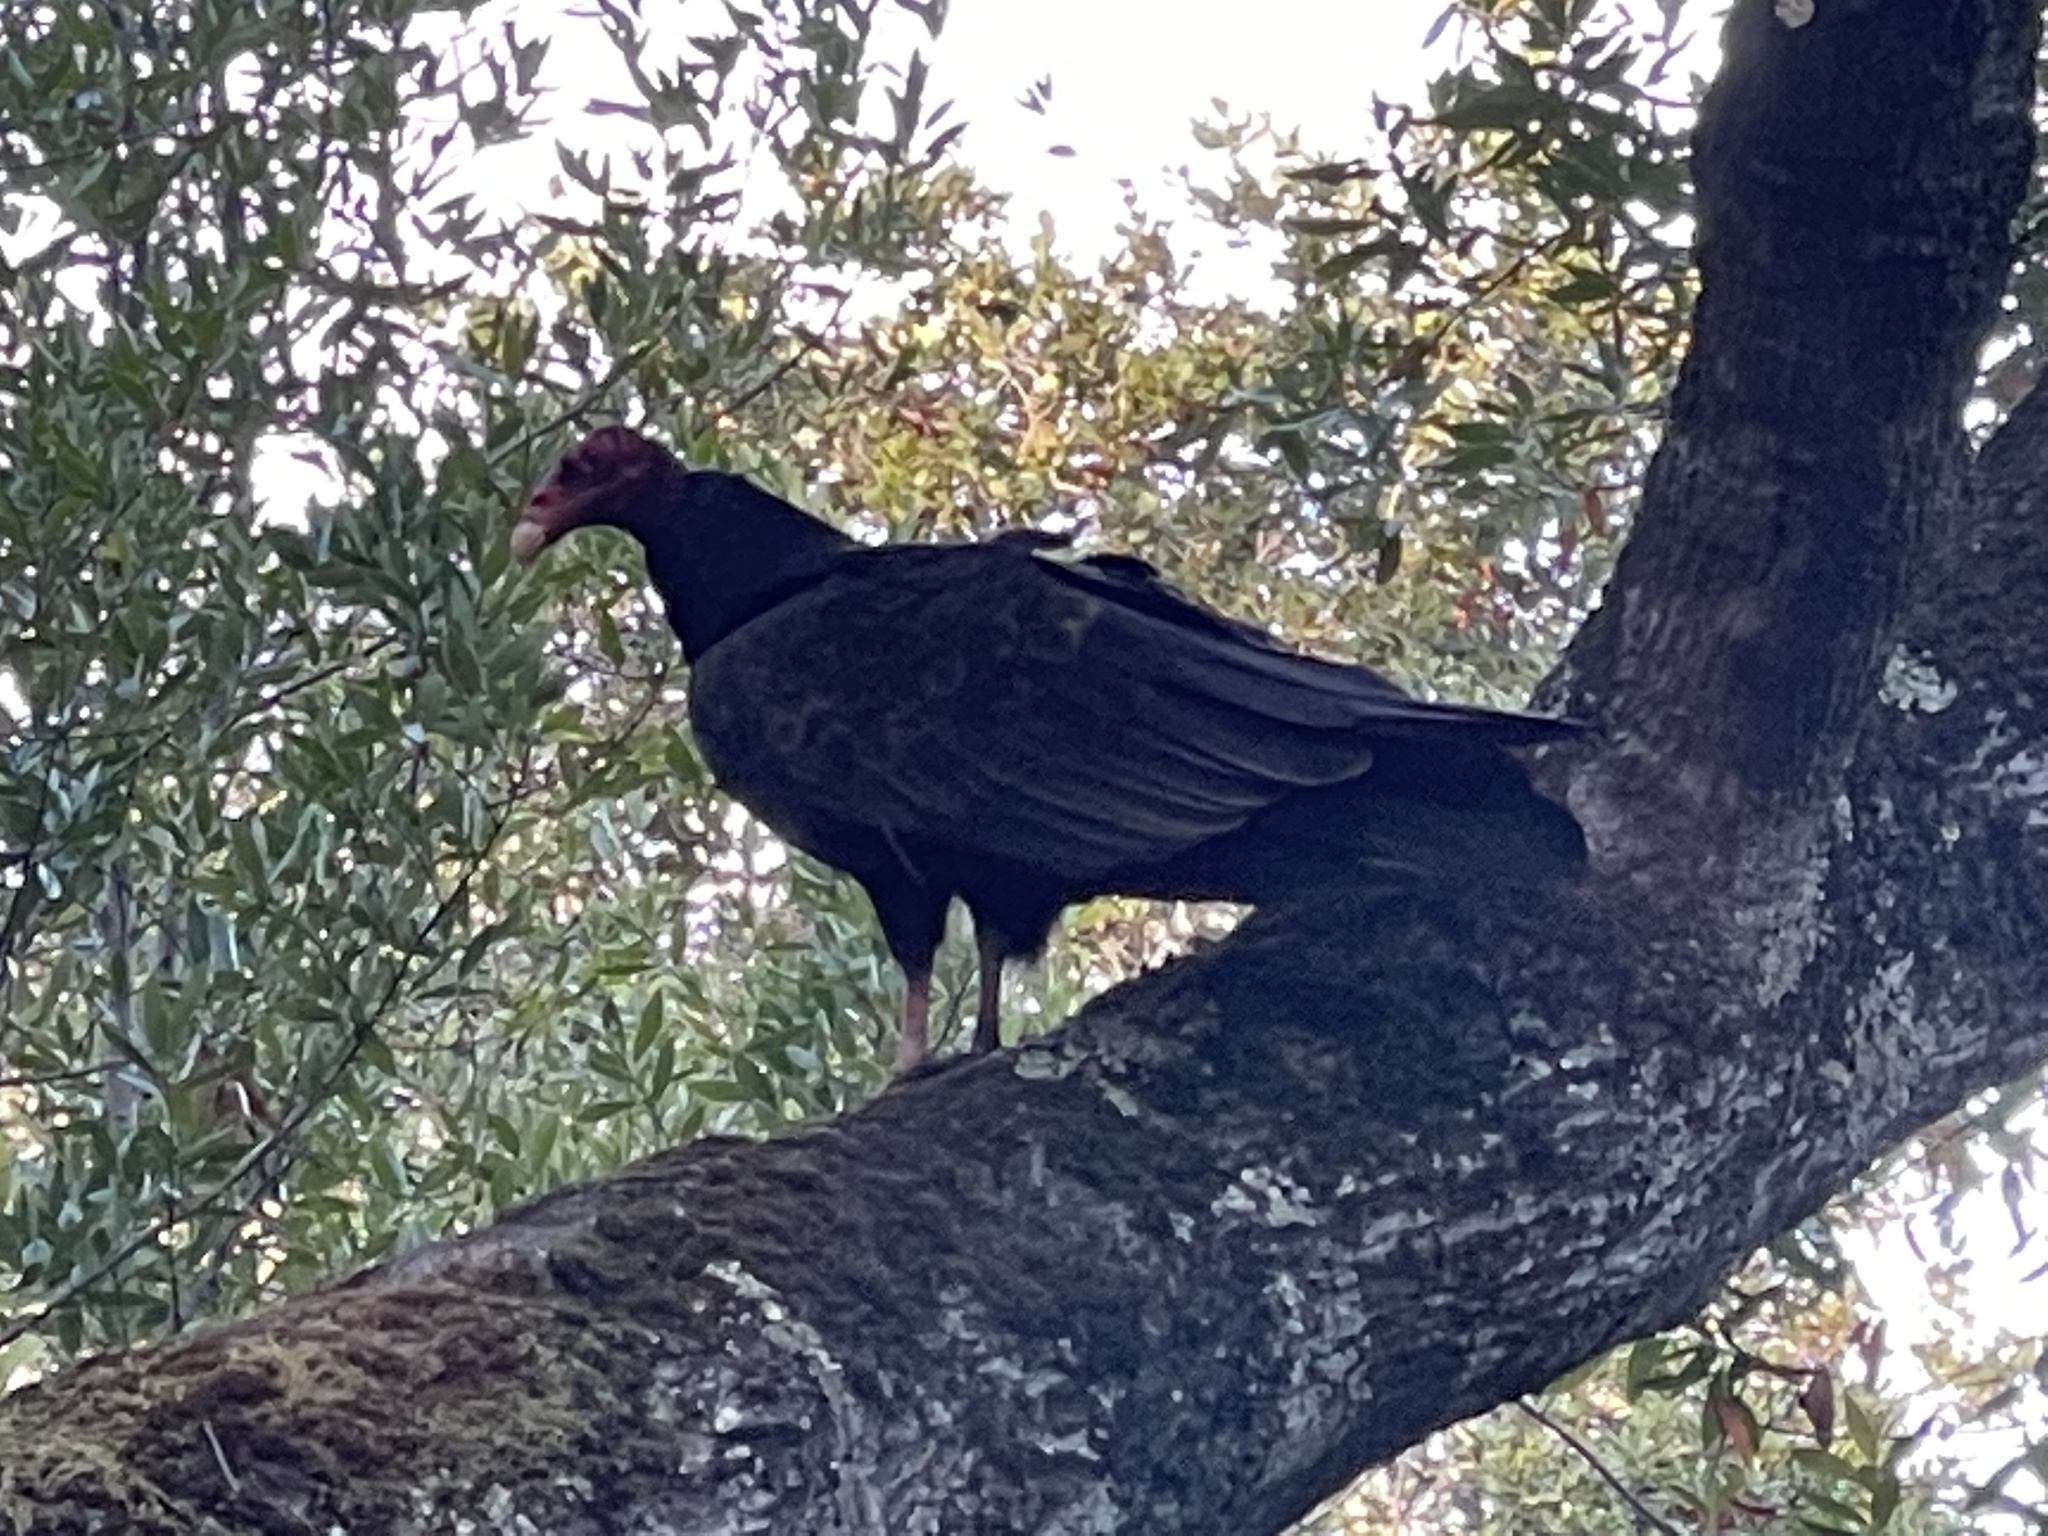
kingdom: Animalia
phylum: Chordata
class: Aves
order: Accipitriformes
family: Cathartidae
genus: Cathartes
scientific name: Cathartes aura
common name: Turkey vulture
